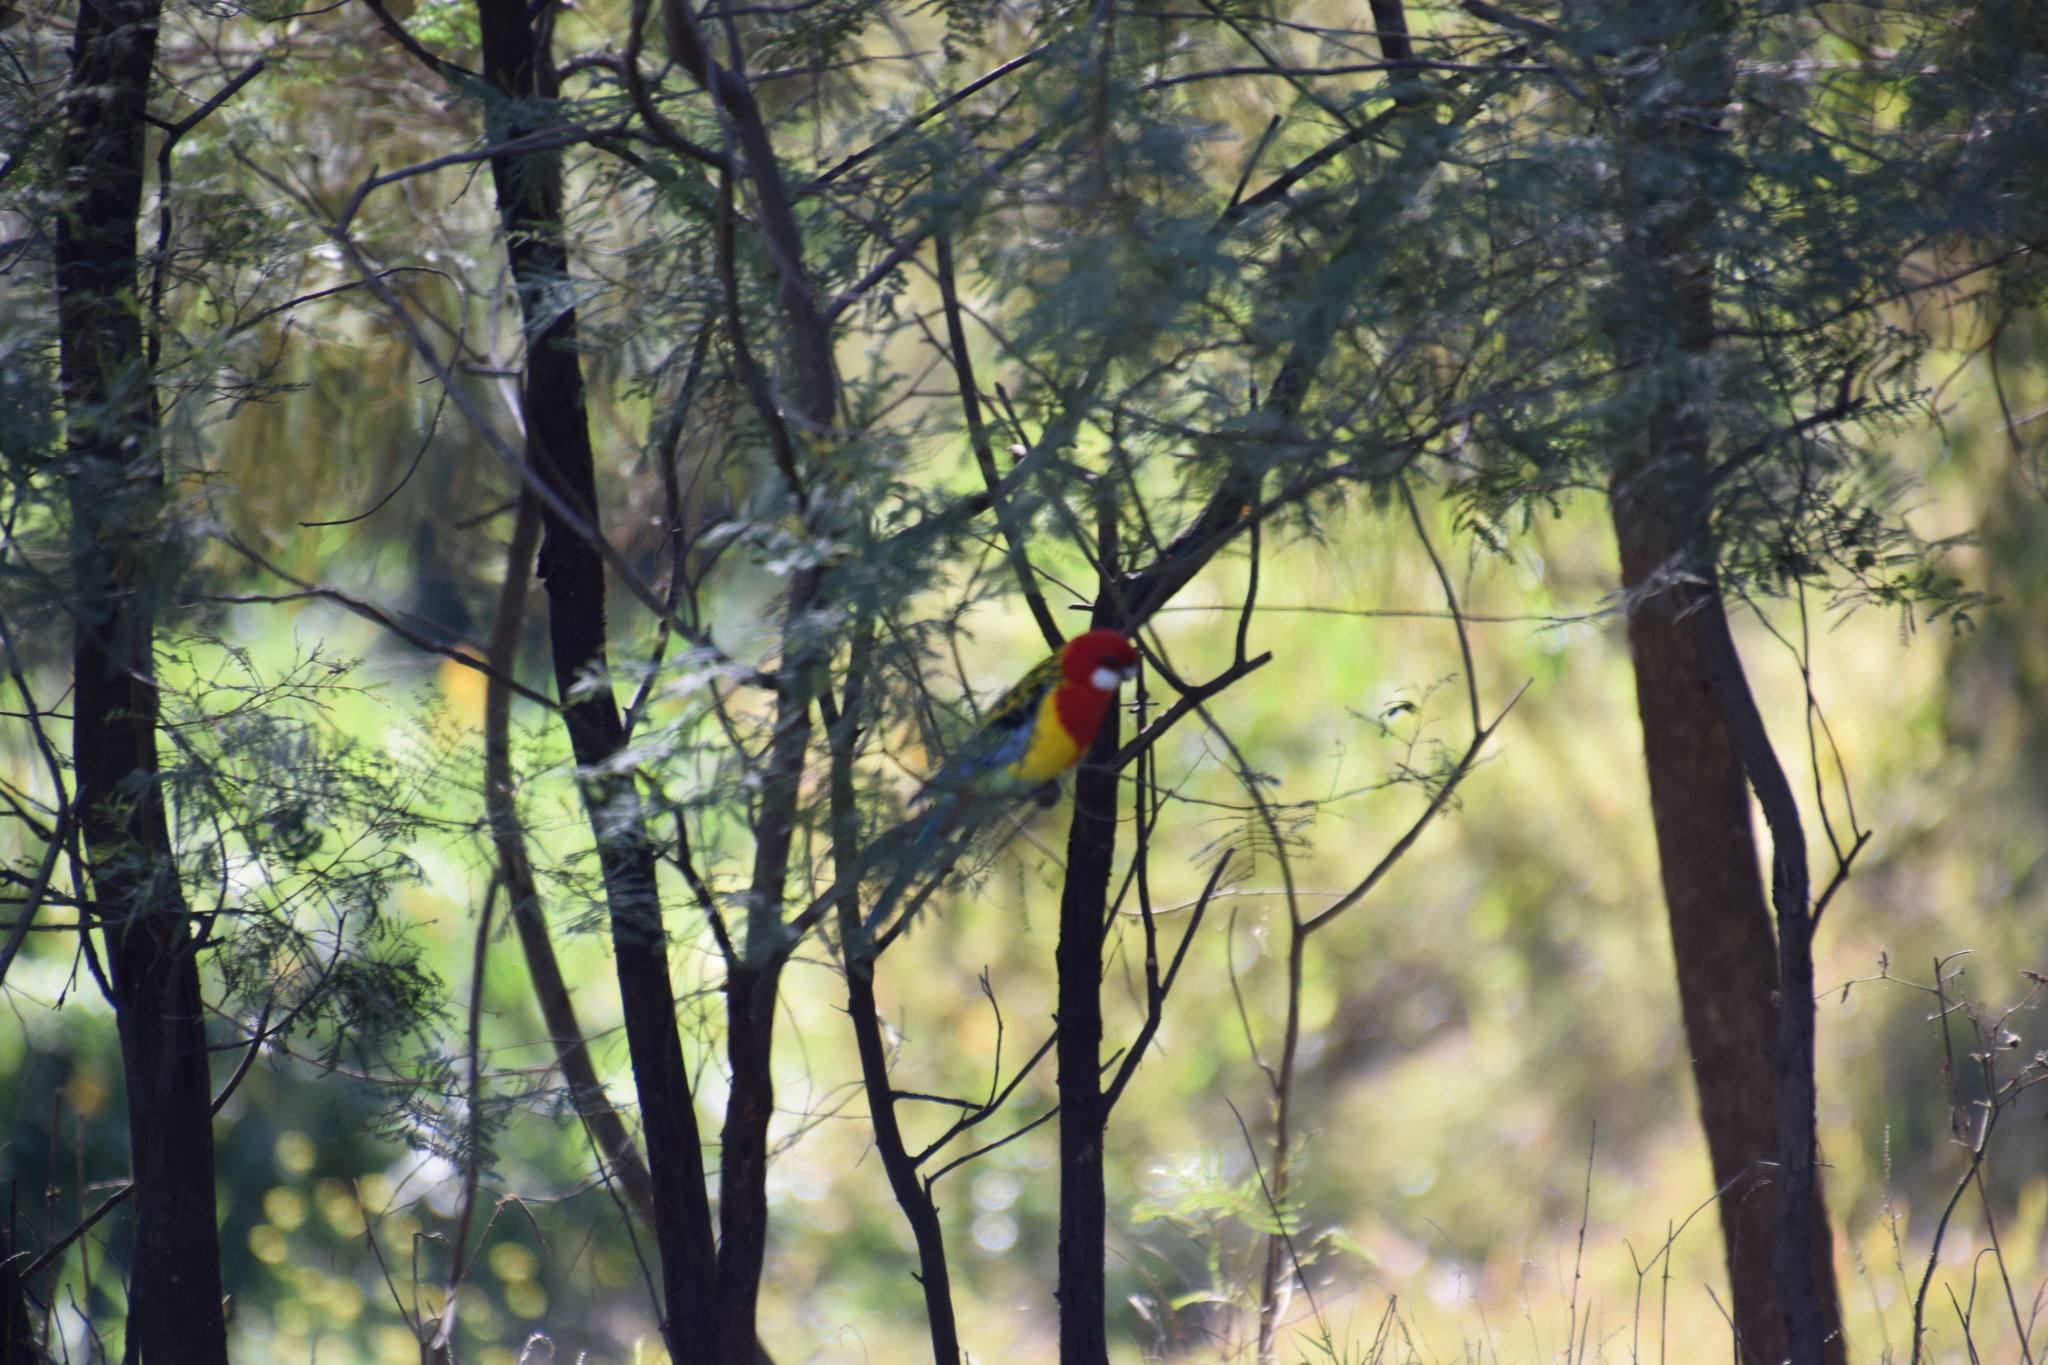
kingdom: Animalia
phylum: Chordata
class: Aves
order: Psittaciformes
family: Psittacidae
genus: Platycercus
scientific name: Platycercus eximius
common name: Eastern rosella
